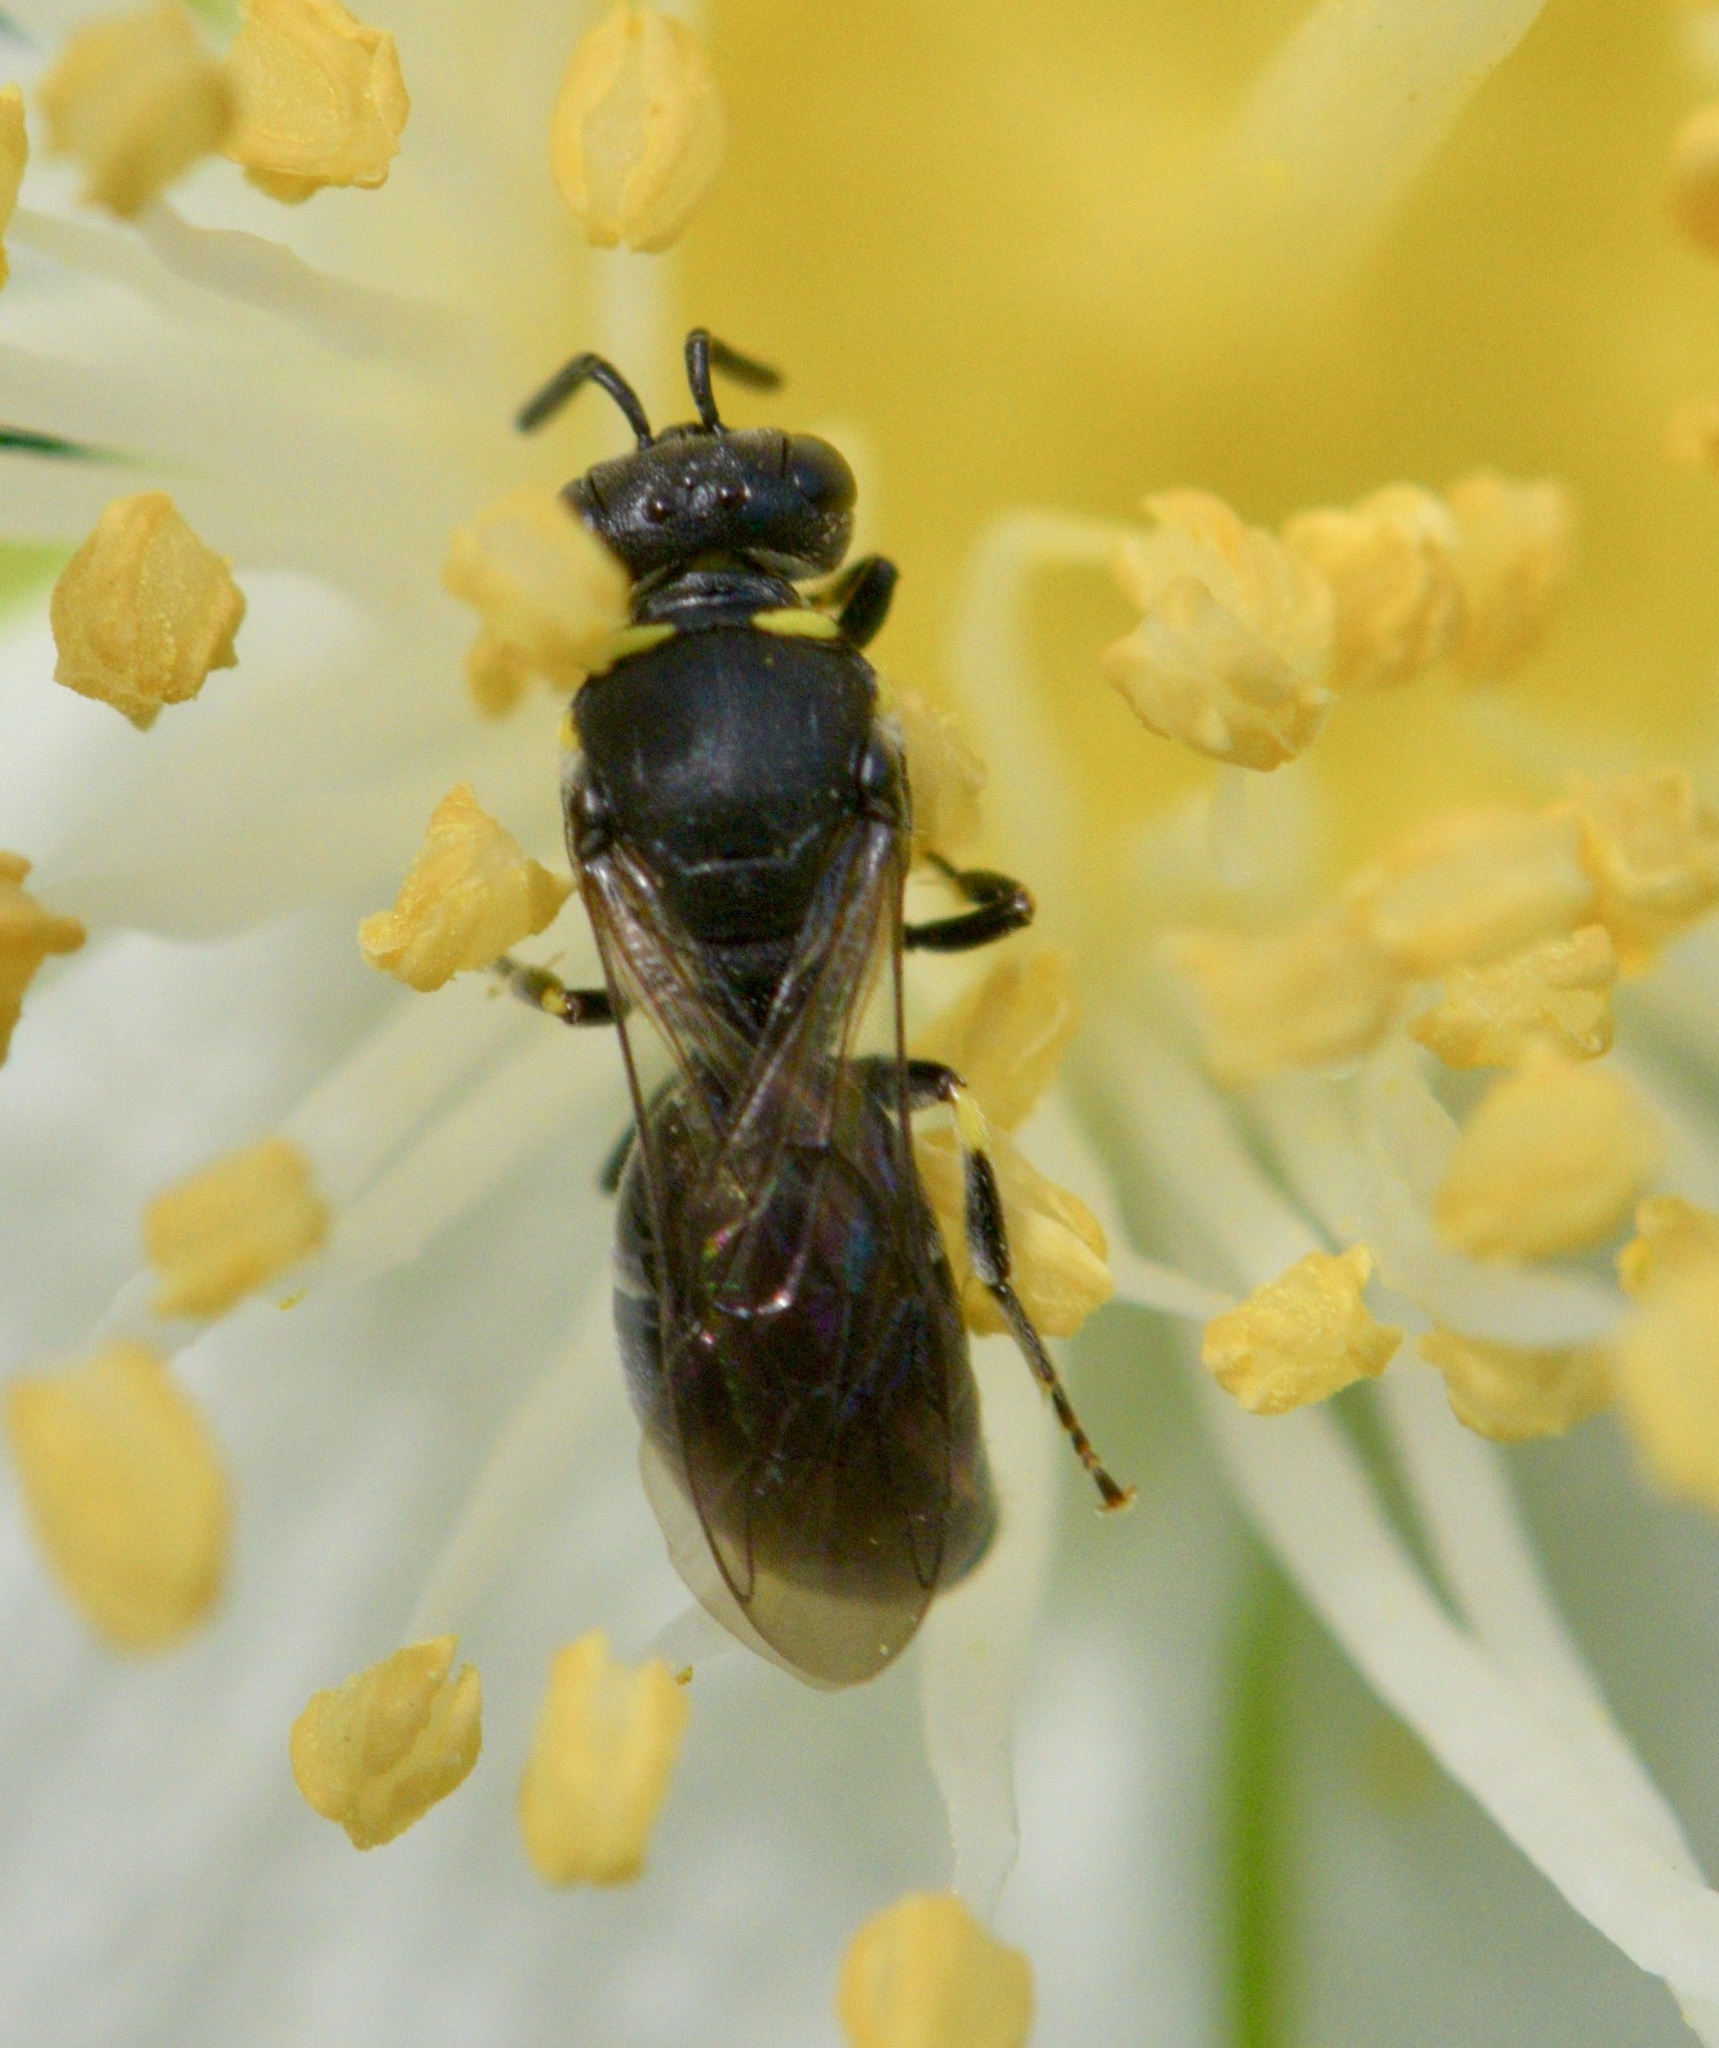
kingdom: Animalia
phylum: Arthropoda
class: Insecta
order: Hymenoptera
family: Colletidae
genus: Hylaeus
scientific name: Hylaeus modestus
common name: Yellow-faced bee
